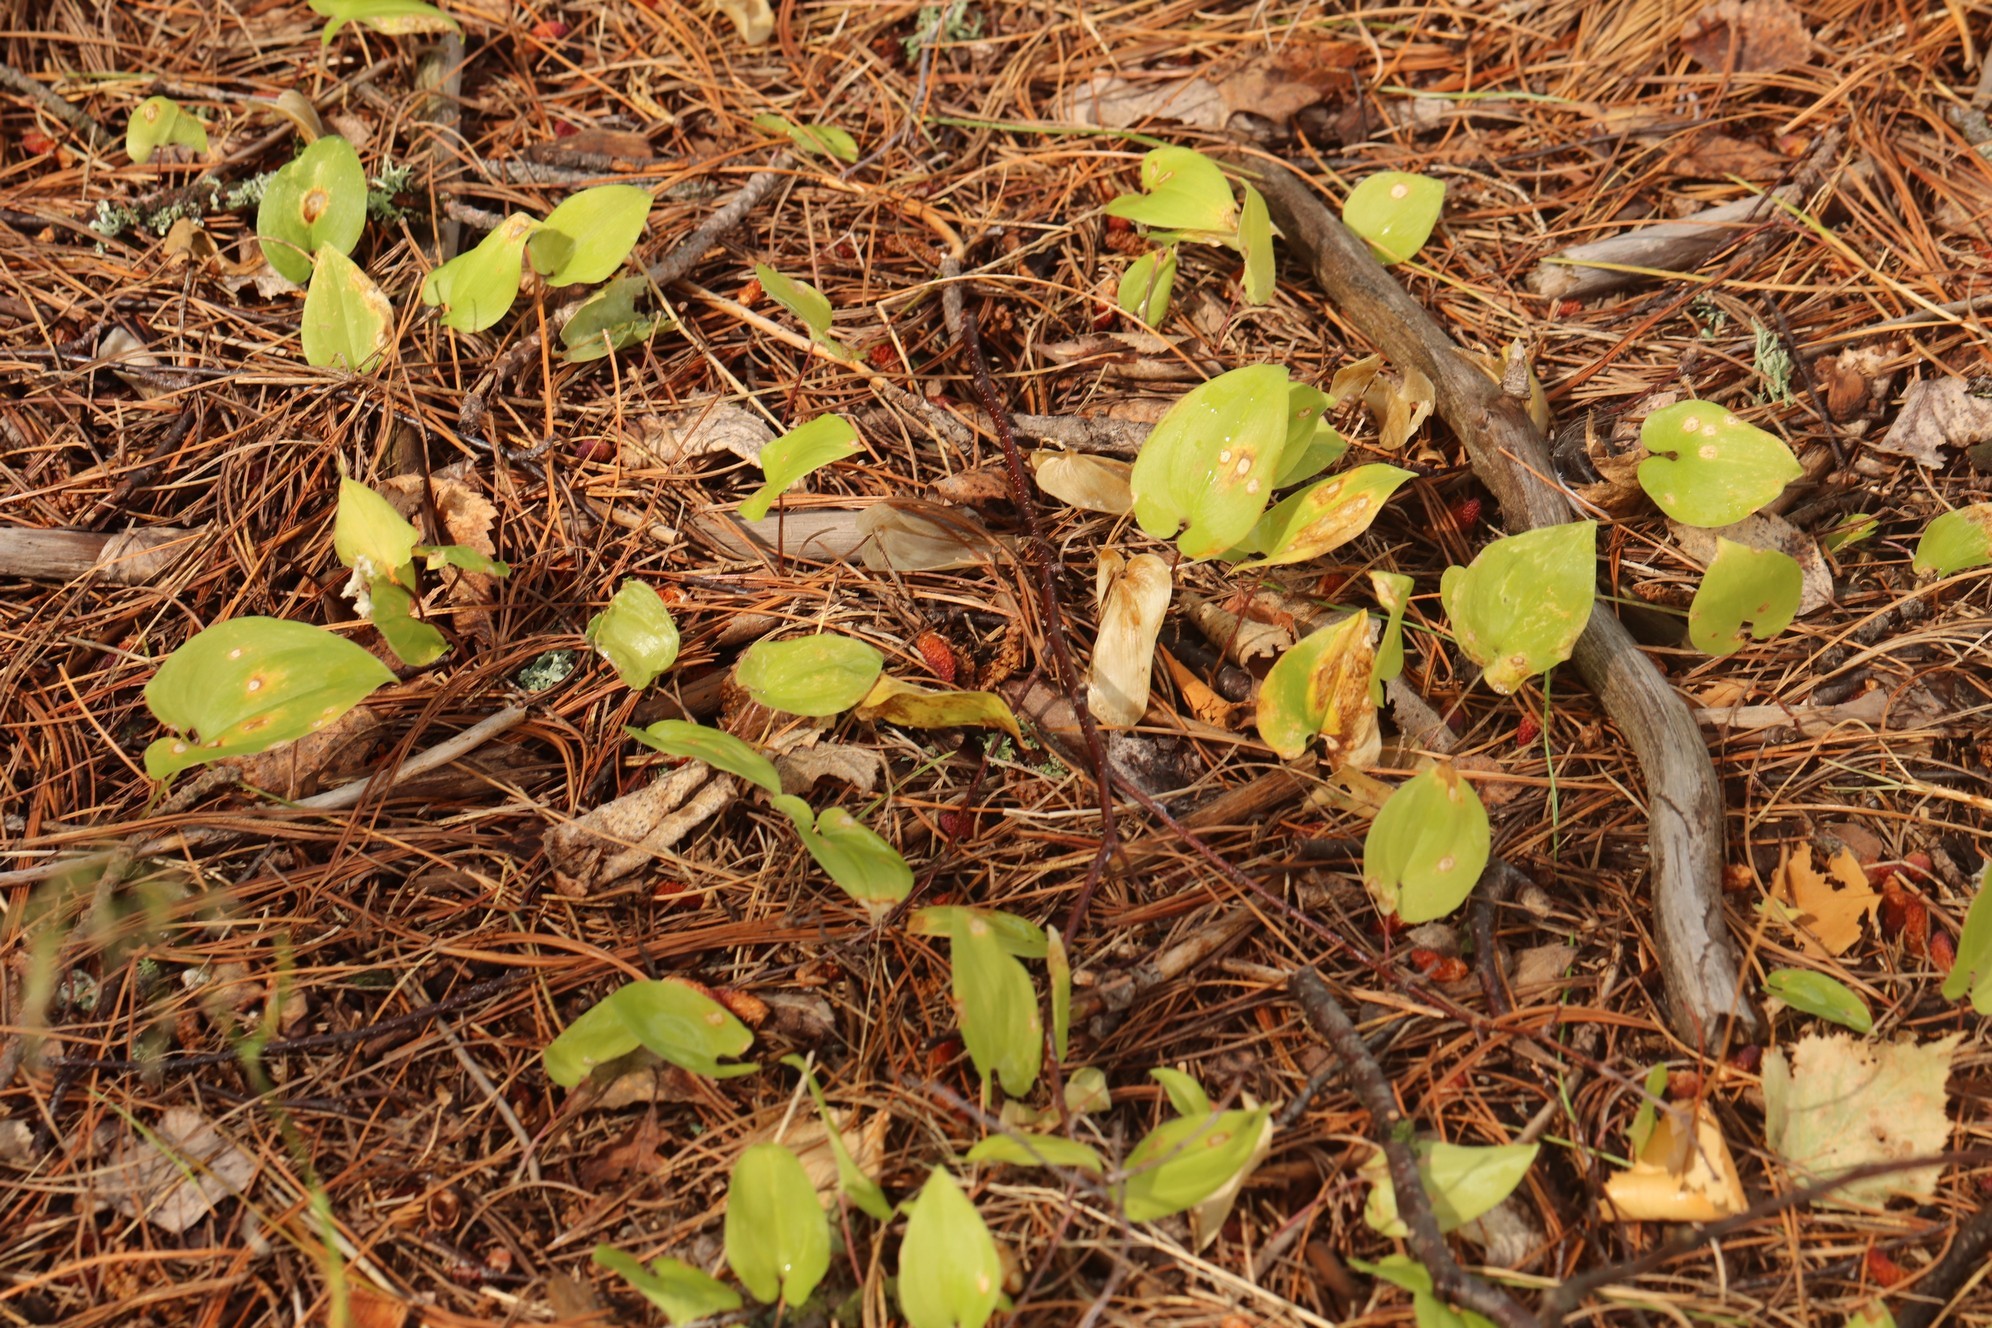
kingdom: Plantae
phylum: Tracheophyta
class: Liliopsida
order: Asparagales
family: Asparagaceae
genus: Maianthemum
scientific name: Maianthemum bifolium
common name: May lily
